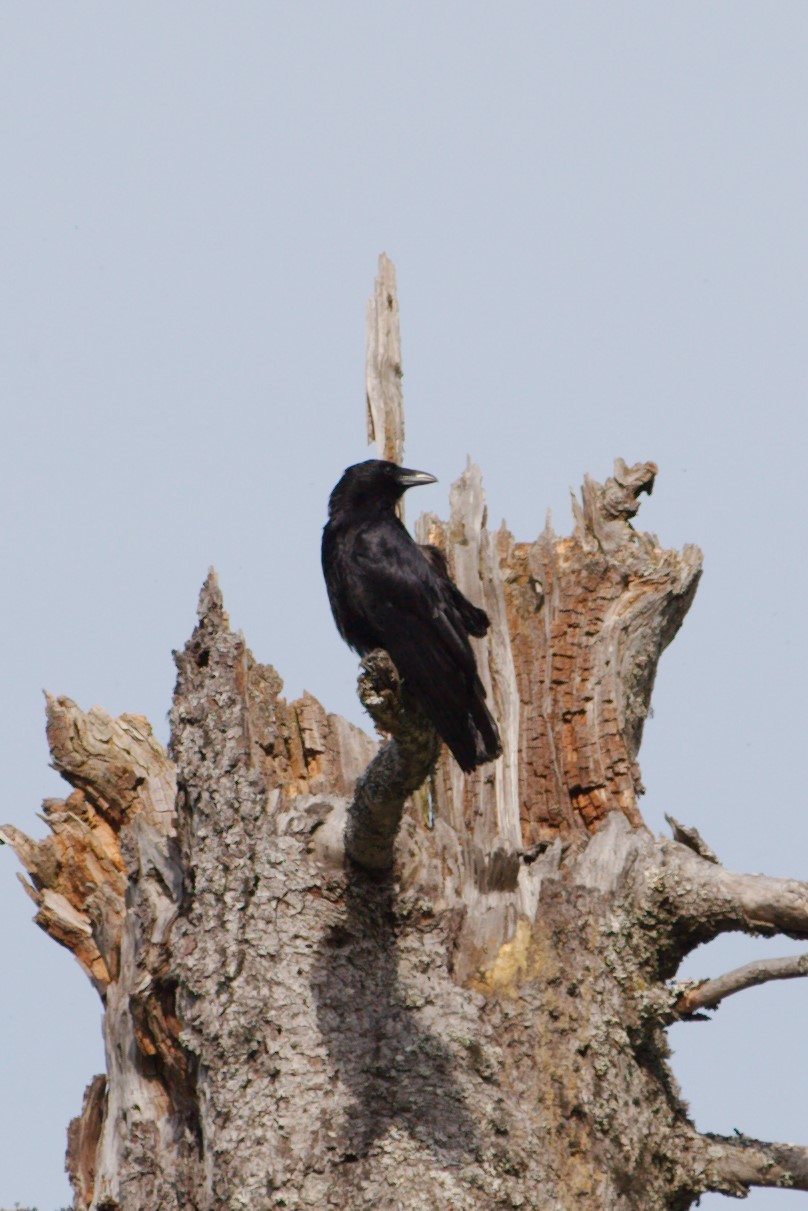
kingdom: Animalia
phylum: Chordata
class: Aves
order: Passeriformes
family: Corvidae
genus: Corvus
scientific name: Corvus corone
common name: Carrion crow
